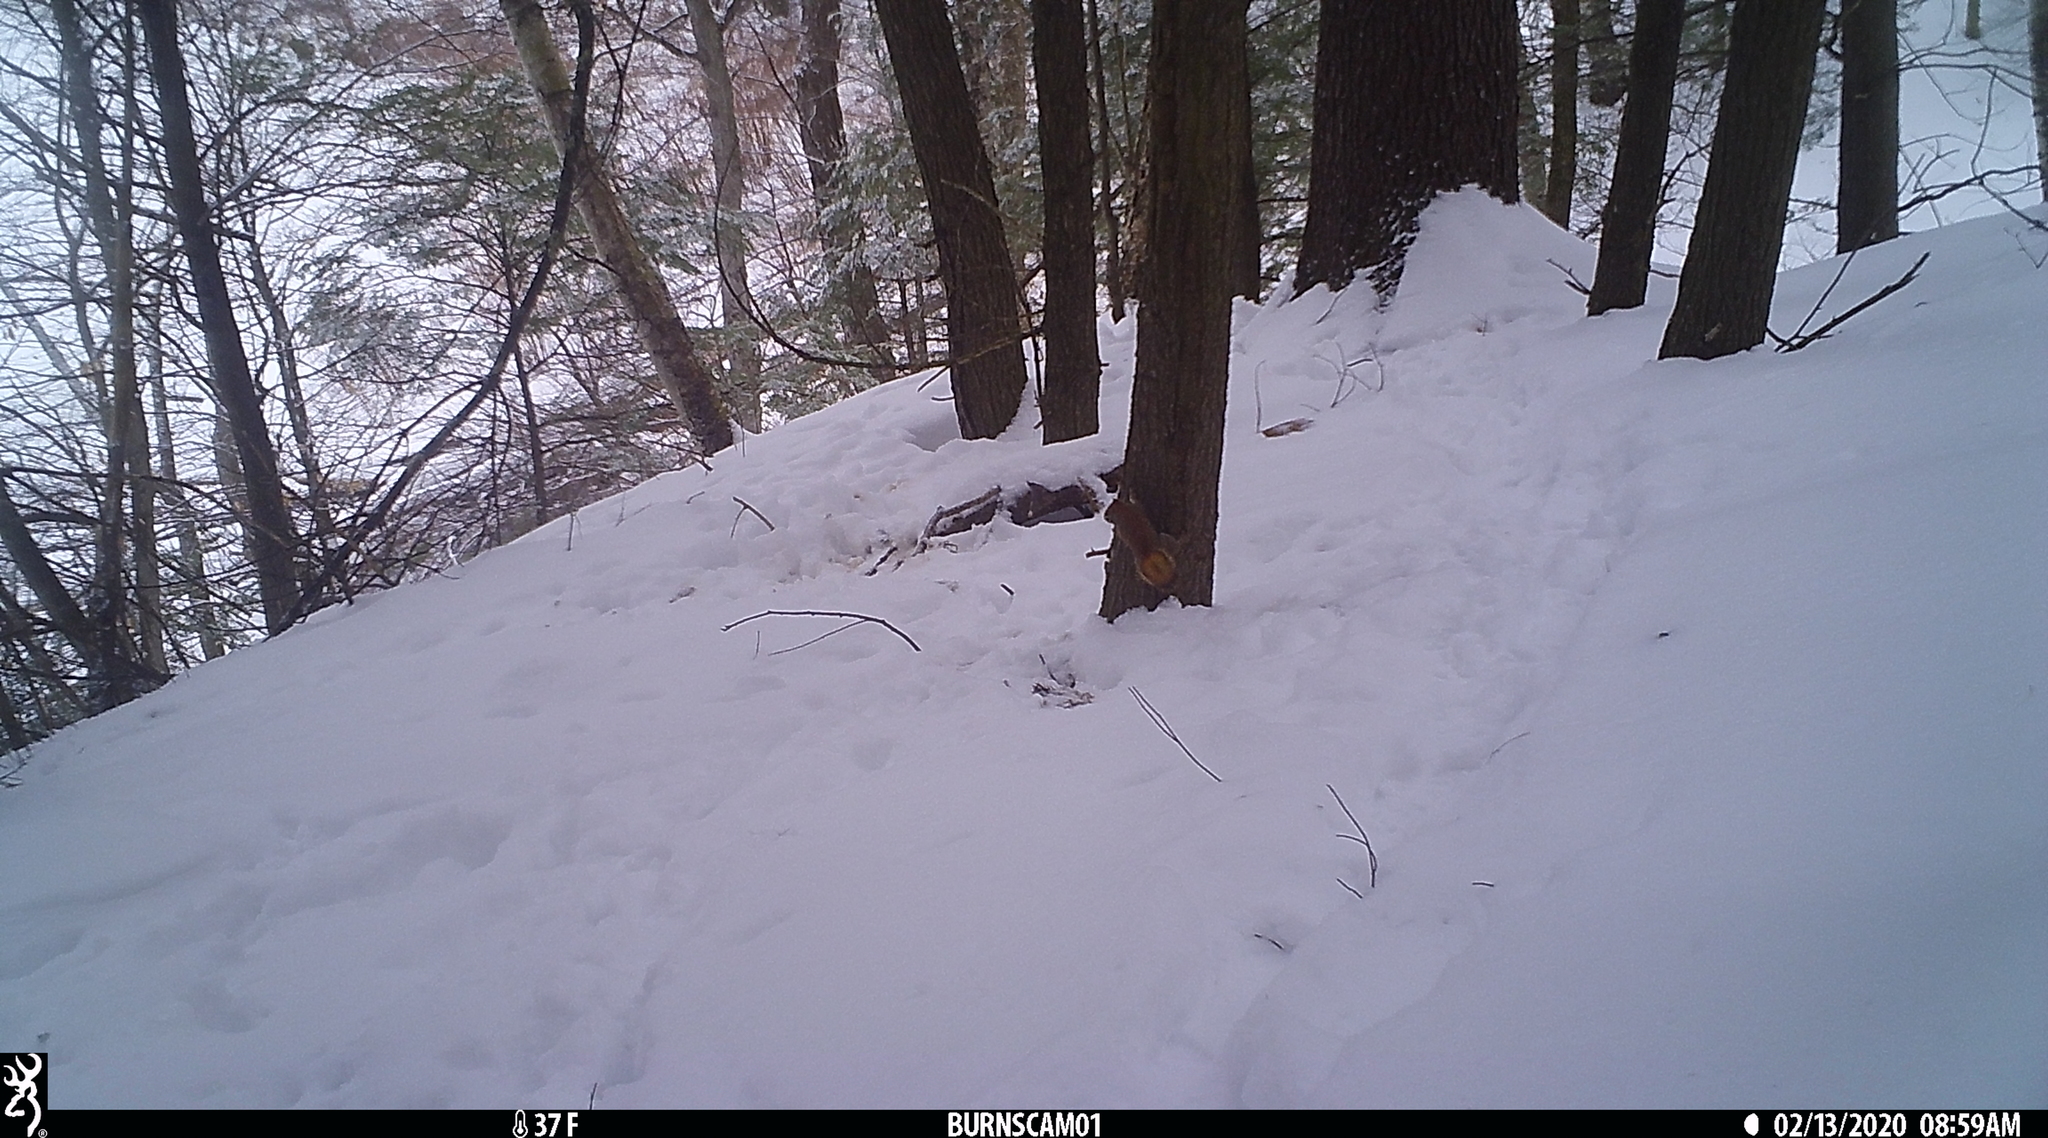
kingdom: Animalia
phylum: Chordata
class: Mammalia
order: Rodentia
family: Sciuridae
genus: Tamiasciurus
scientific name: Tamiasciurus hudsonicus
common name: Red squirrel
